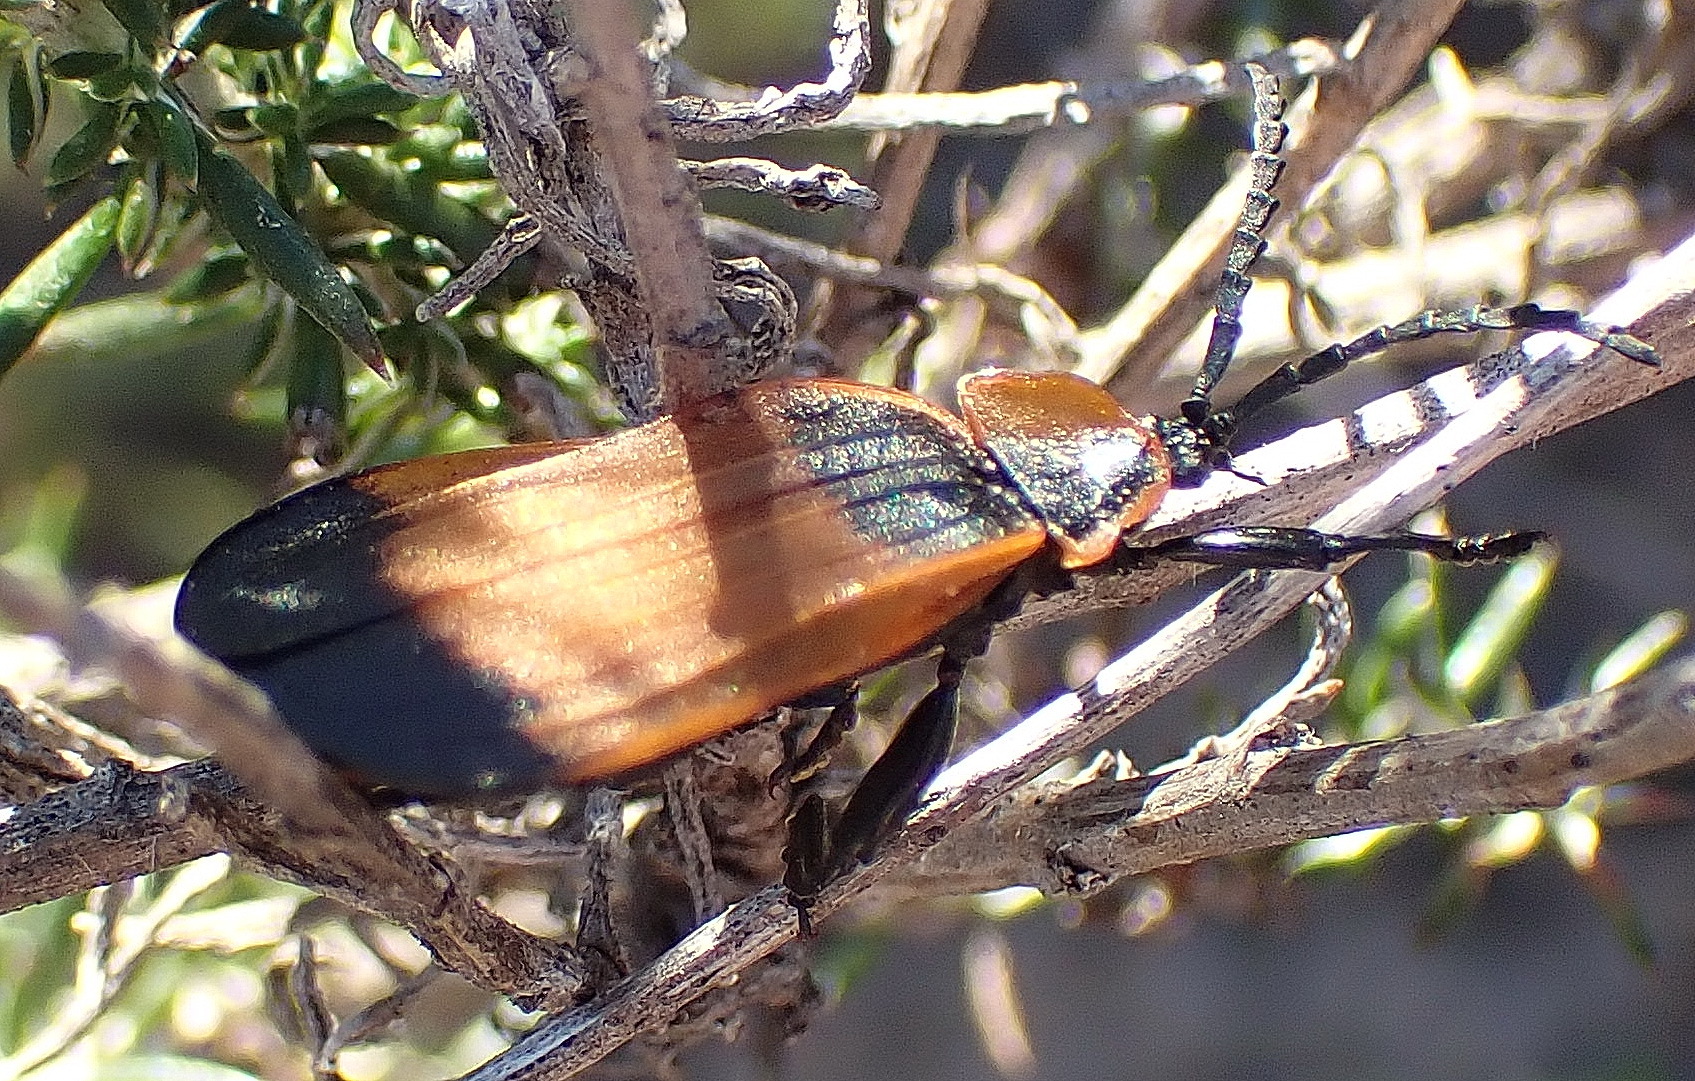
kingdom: Animalia
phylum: Arthropoda
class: Insecta
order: Coleoptera
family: Lycidae
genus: Lycus
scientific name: Lycus
